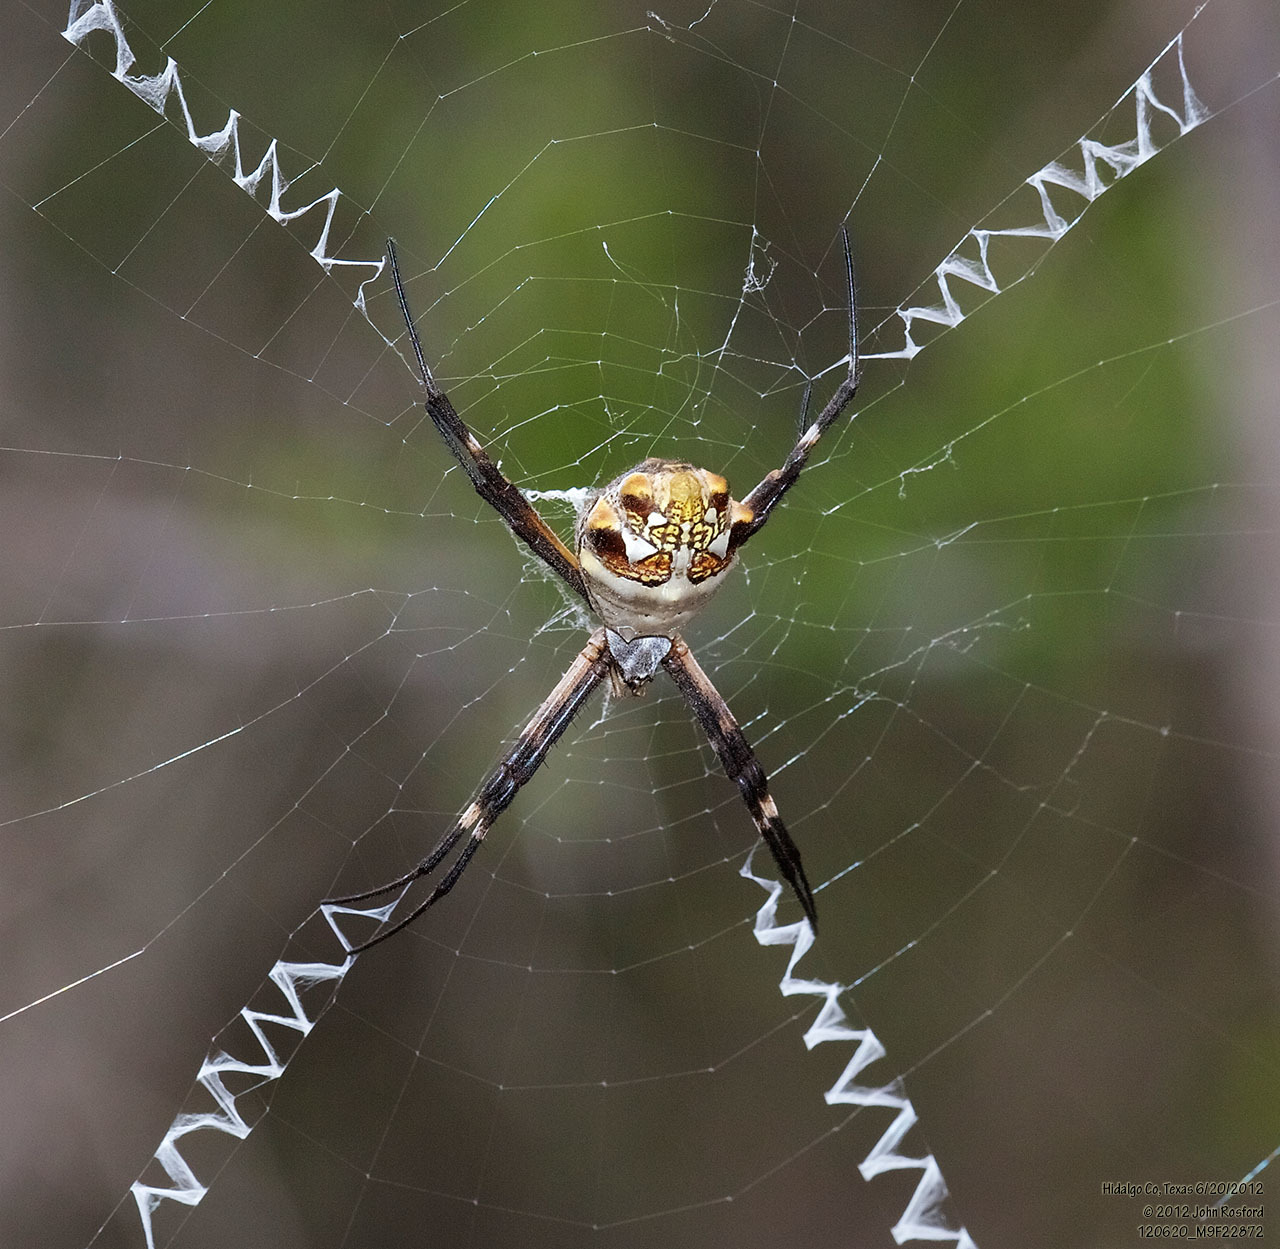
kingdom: Animalia
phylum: Arthropoda
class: Arachnida
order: Araneae
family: Araneidae
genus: Argiope
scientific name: Argiope argentata
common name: Orb weavers
